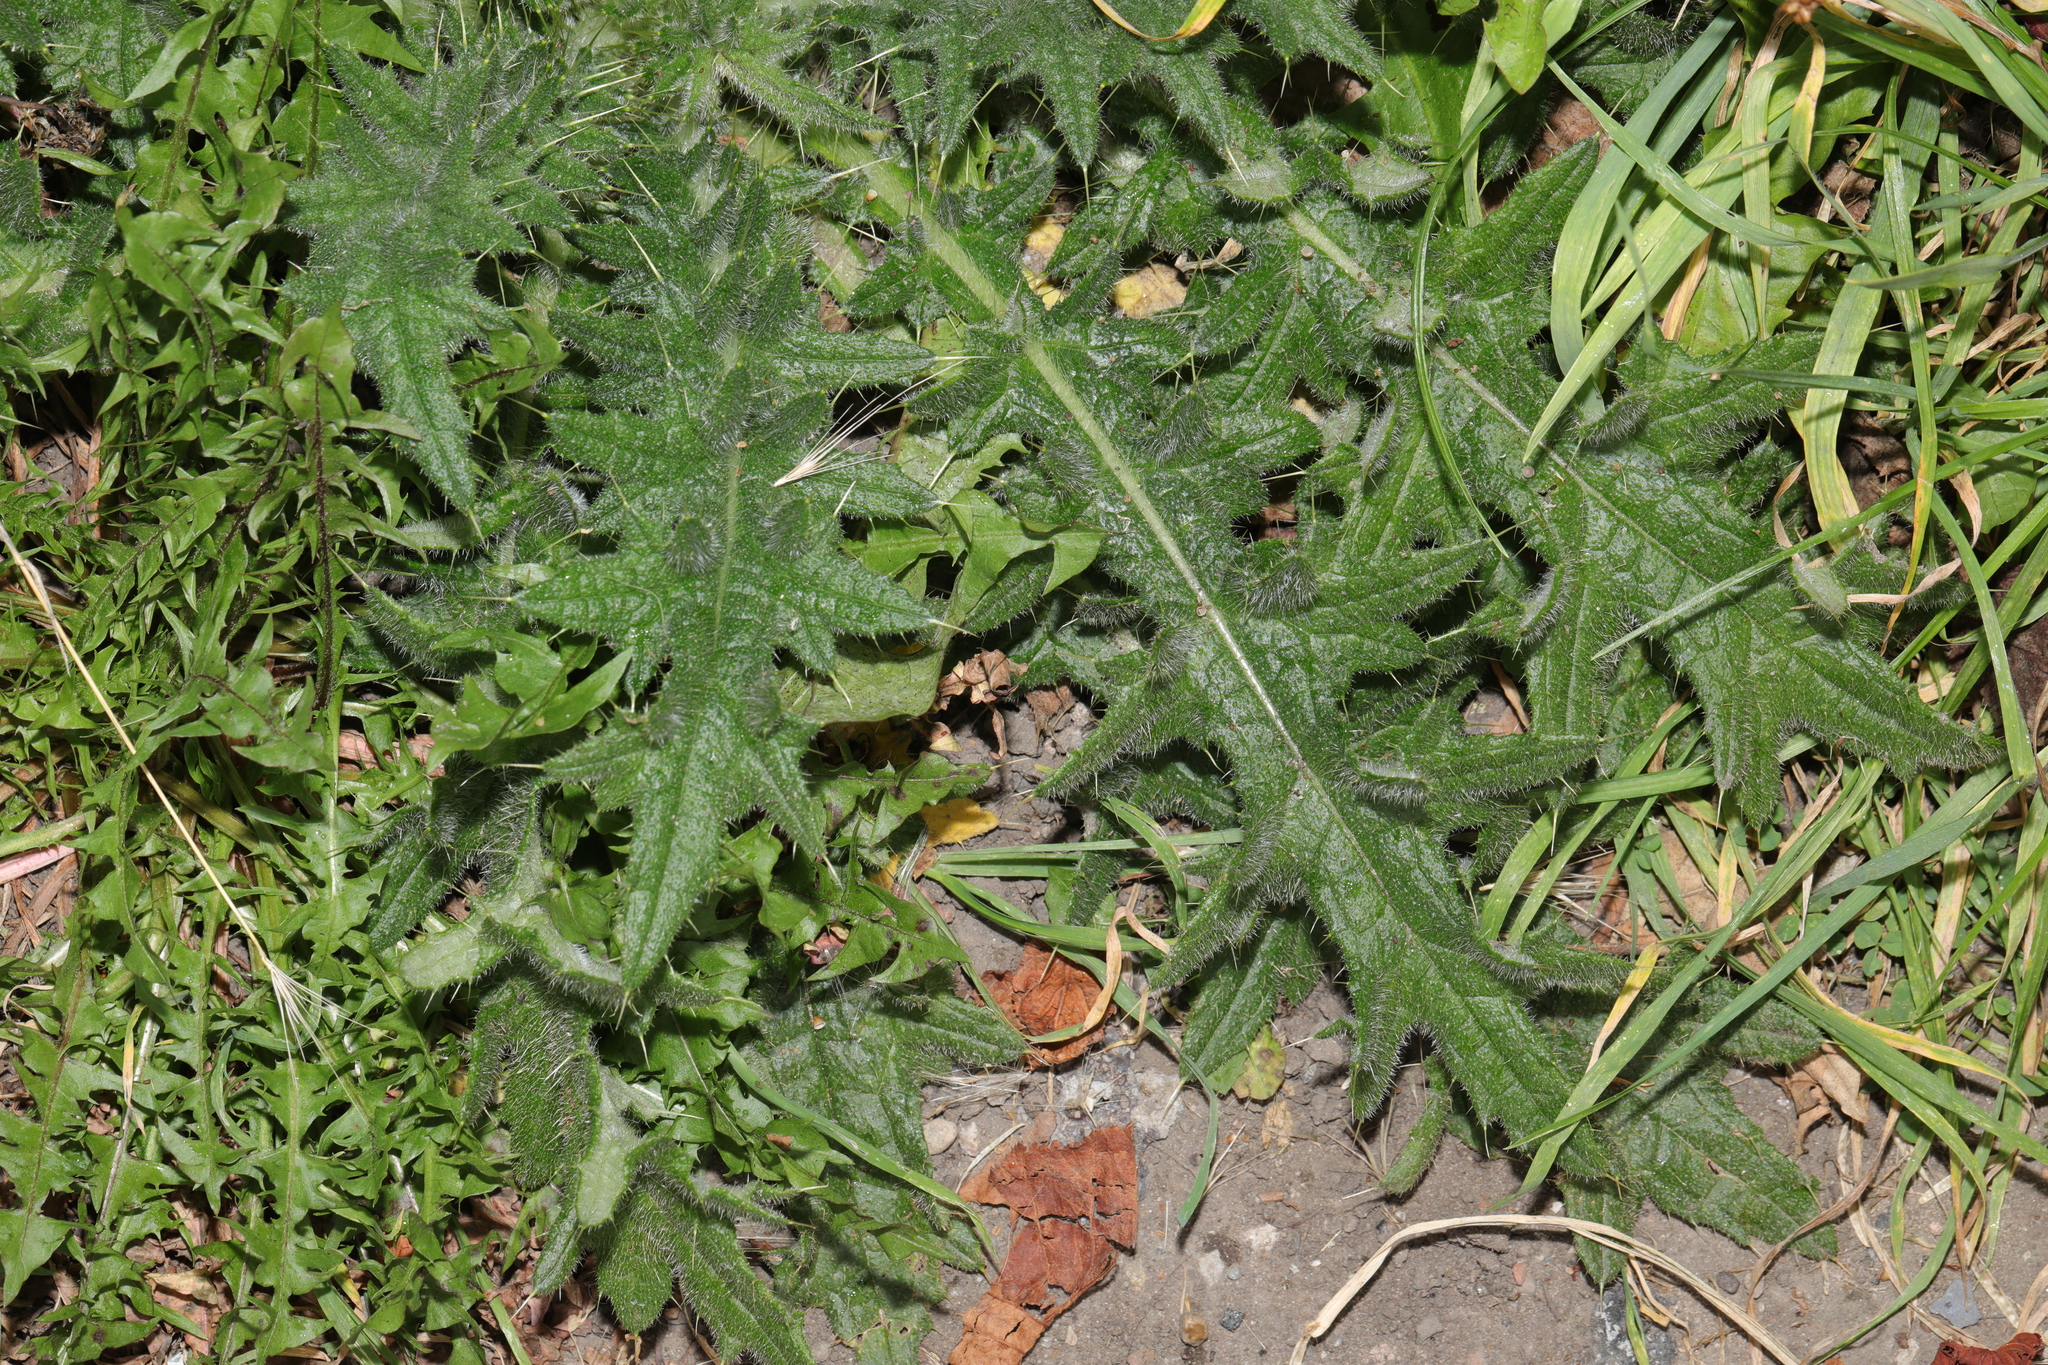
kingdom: Plantae
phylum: Tracheophyta
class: Magnoliopsida
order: Asterales
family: Asteraceae
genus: Cirsium
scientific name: Cirsium vulgare
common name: Bull thistle
